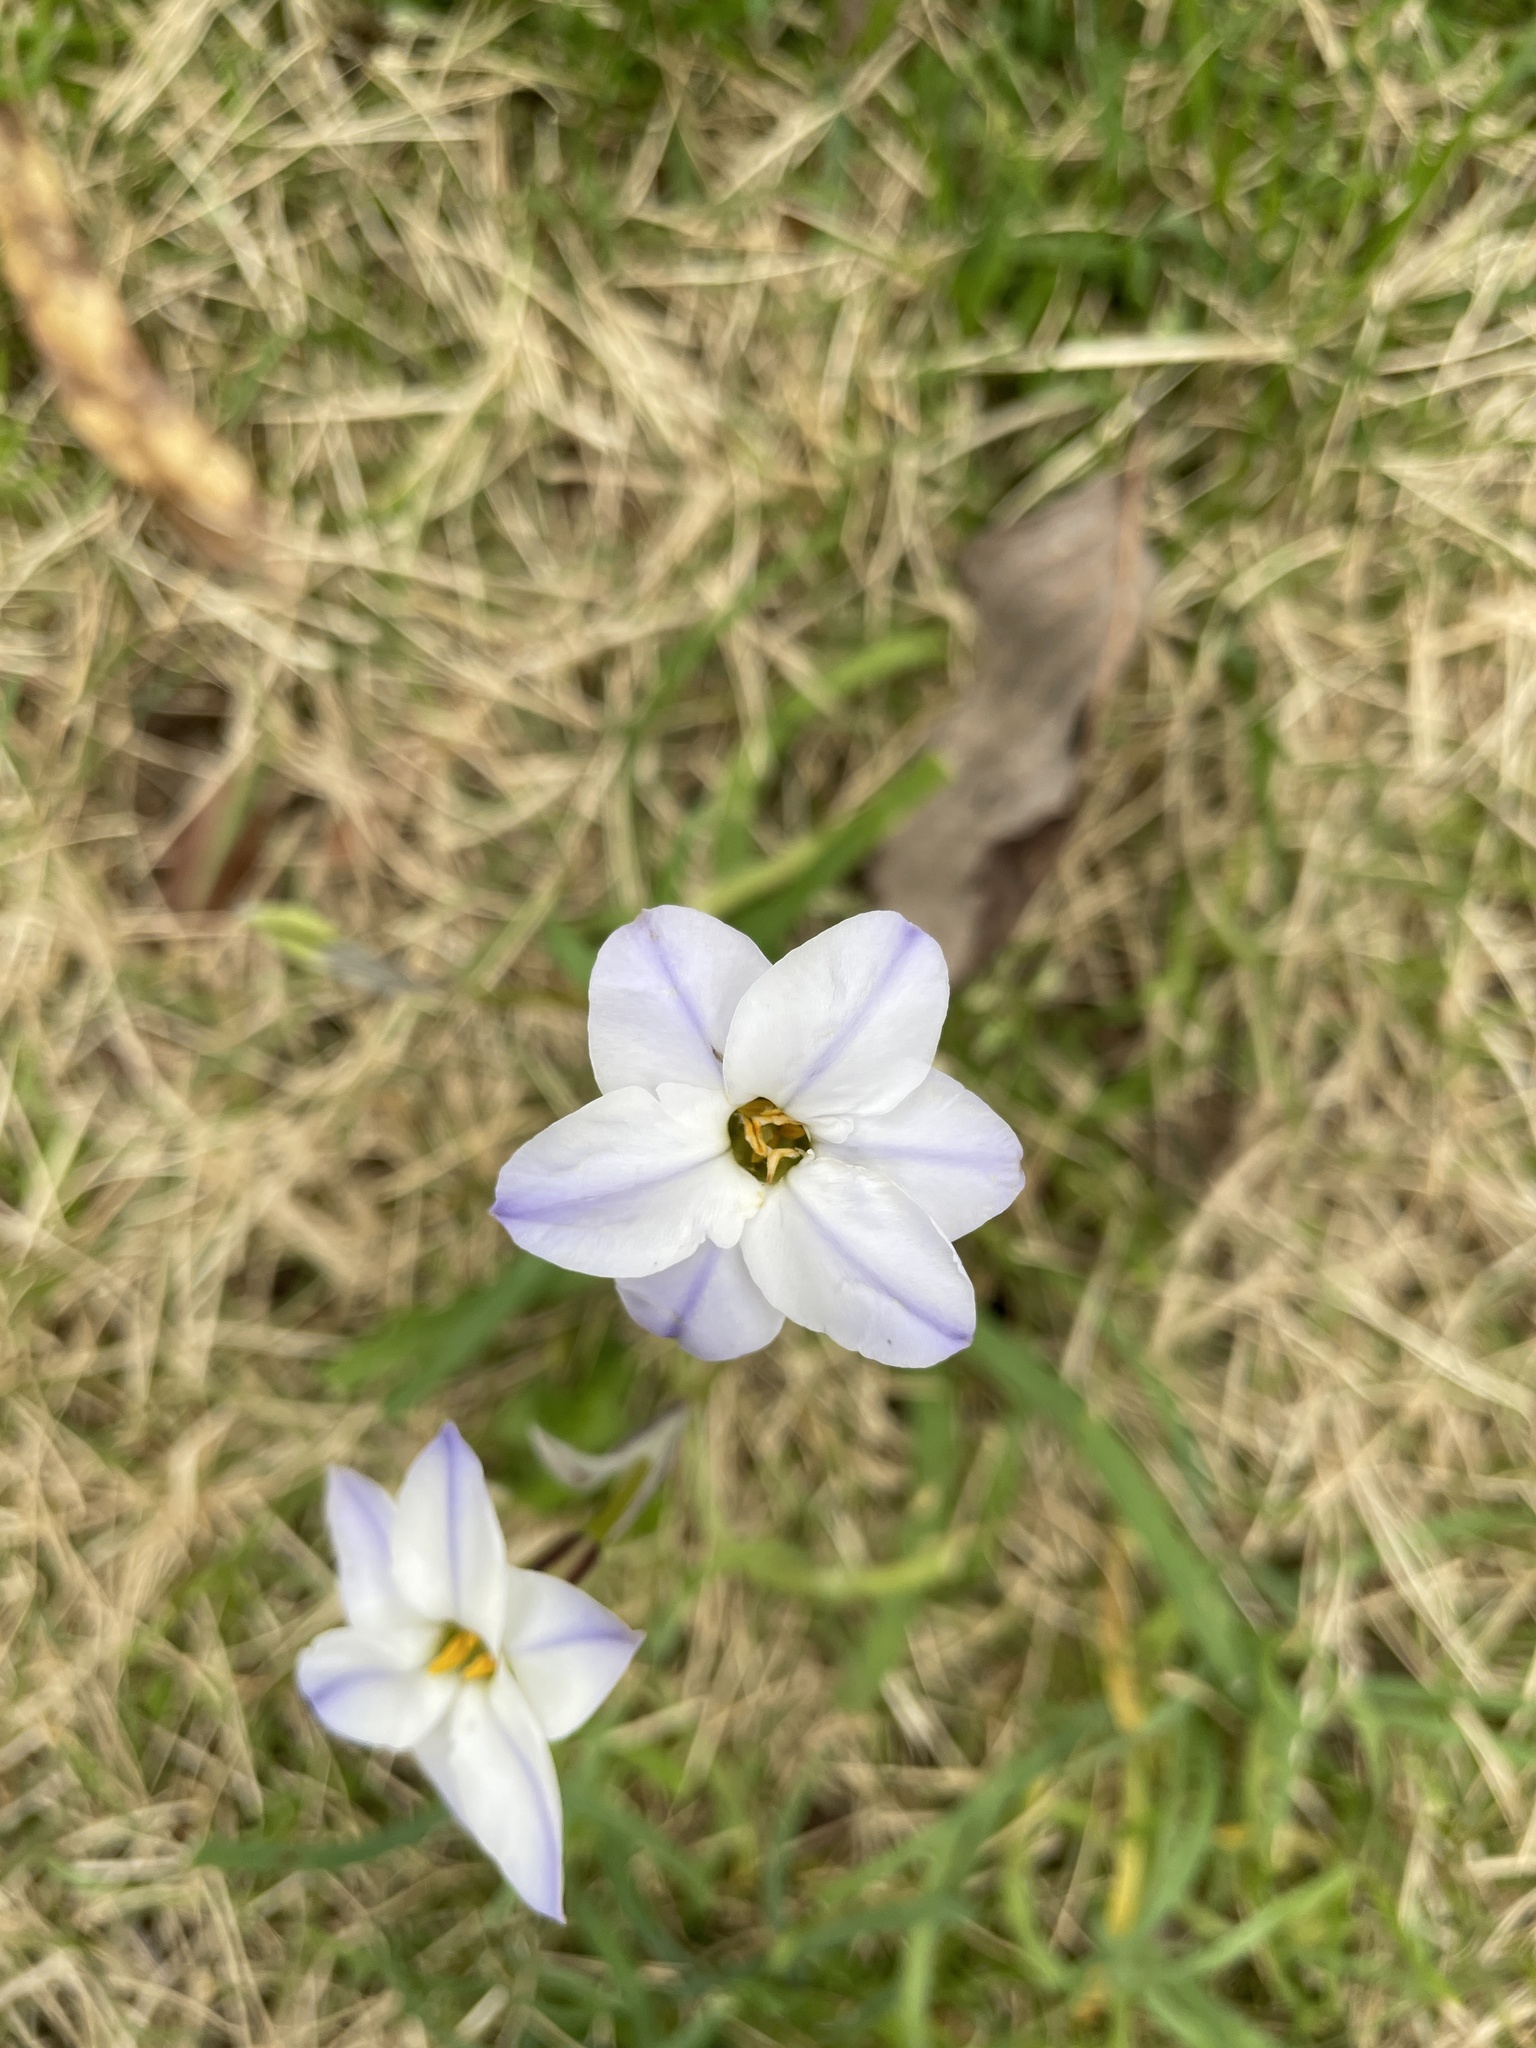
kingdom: Plantae
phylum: Tracheophyta
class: Liliopsida
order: Asparagales
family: Amaryllidaceae
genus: Ipheion
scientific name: Ipheion uniflorum
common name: Spring starflower
